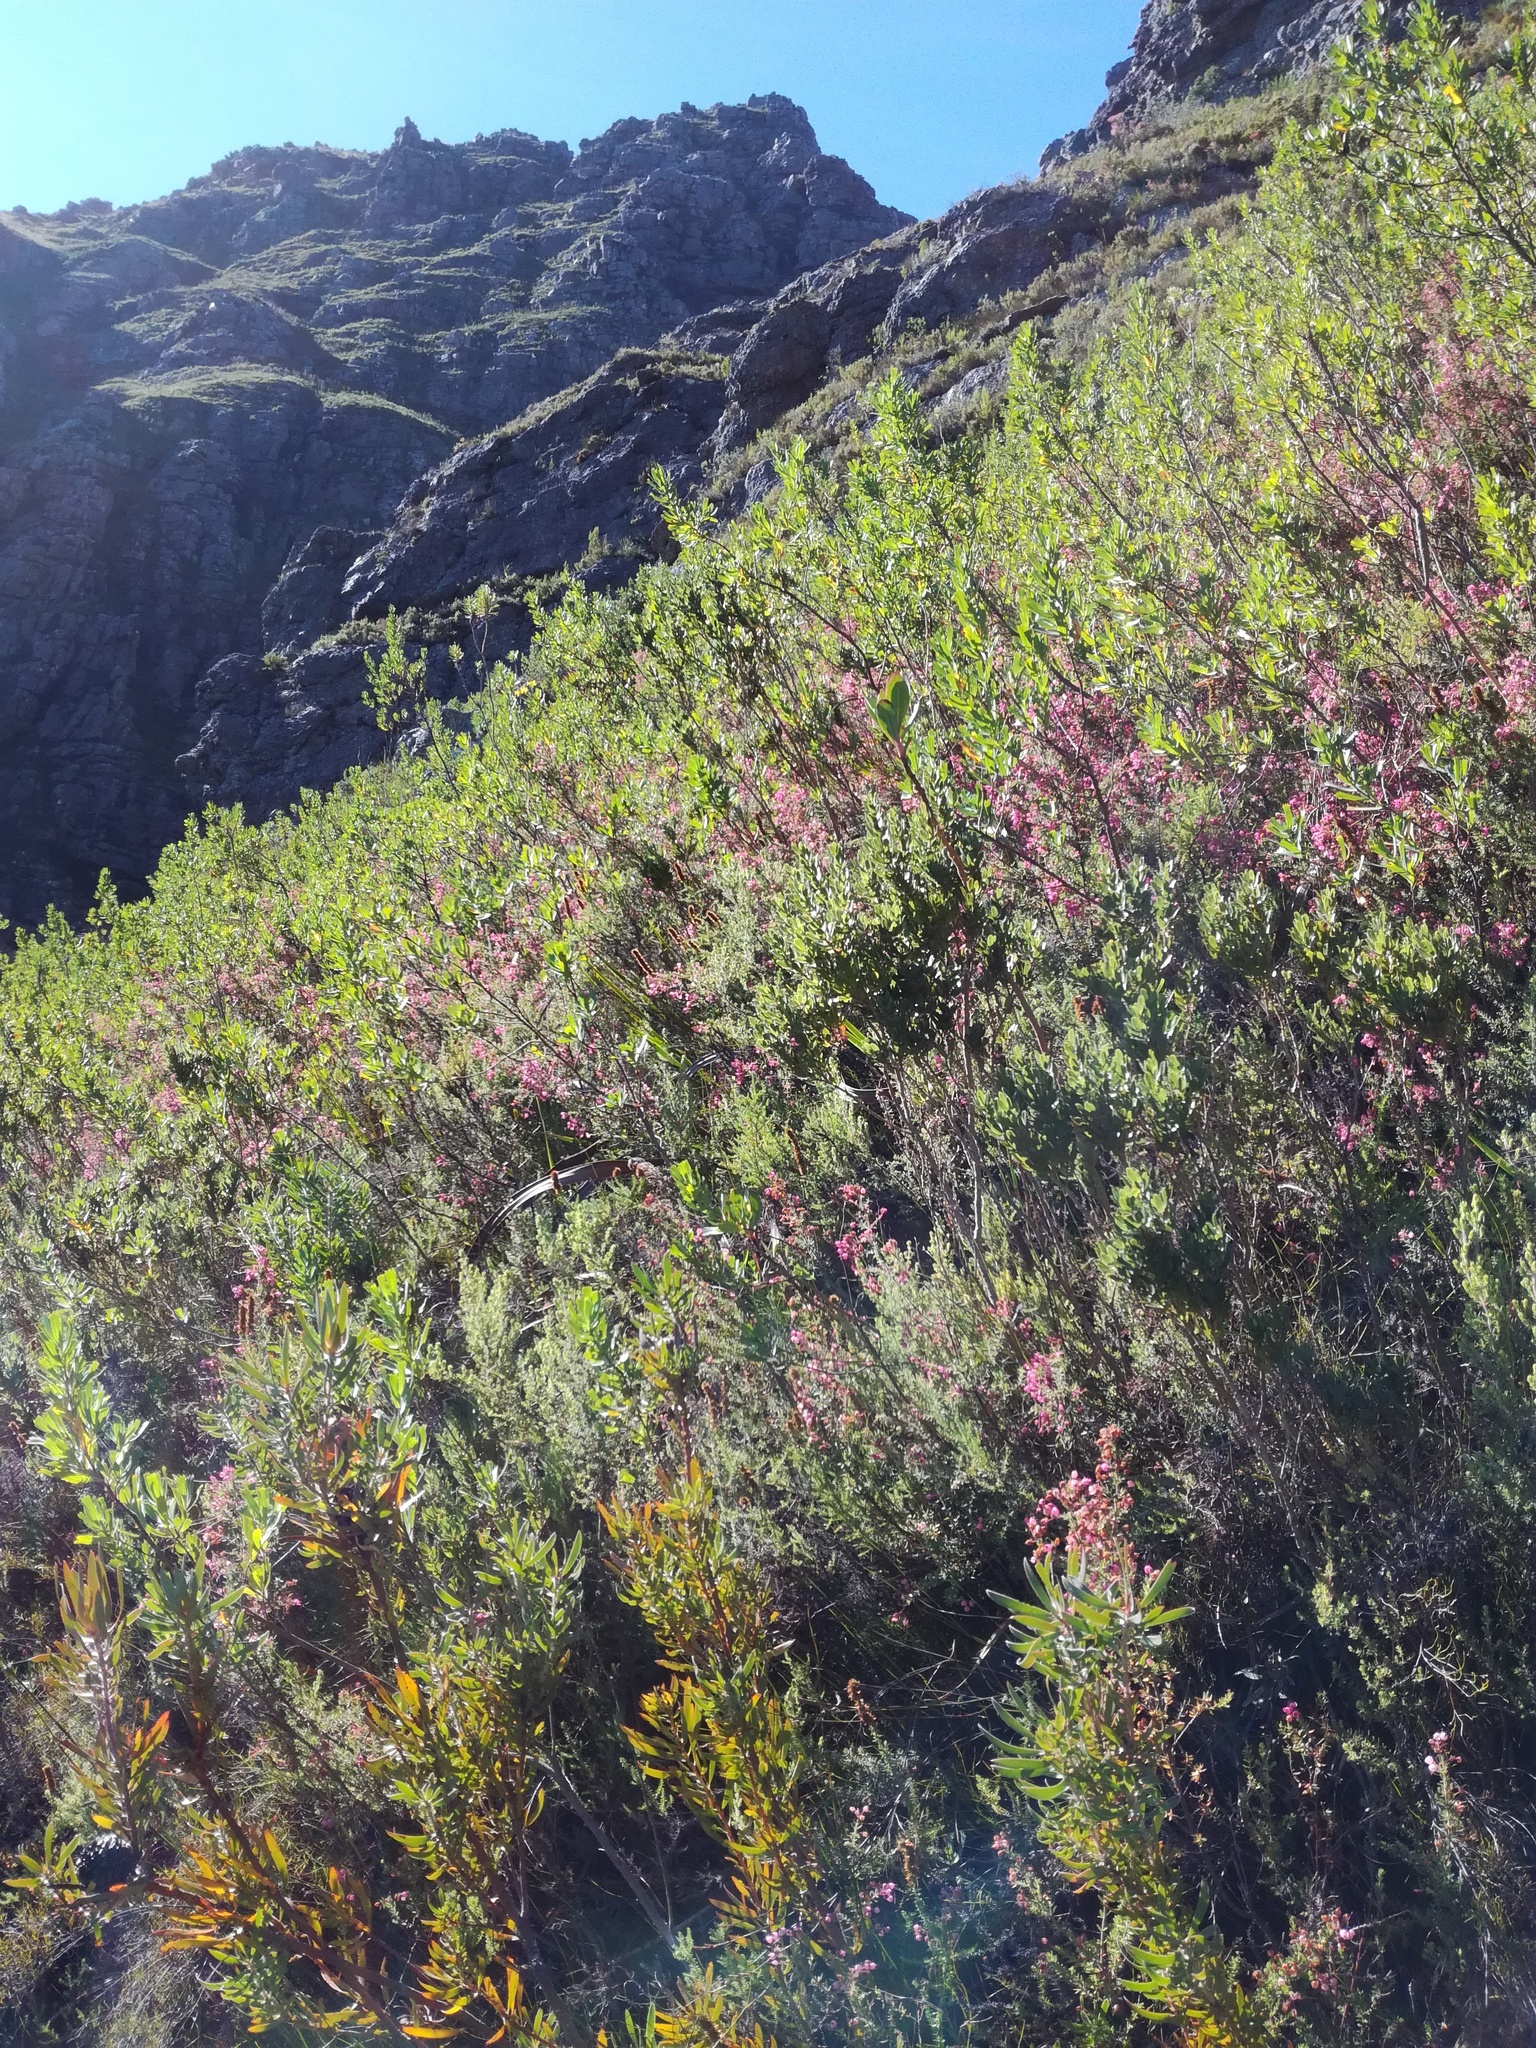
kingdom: Plantae
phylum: Tracheophyta
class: Magnoliopsida
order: Ericales
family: Ericaceae
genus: Erica
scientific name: Erica hirta
